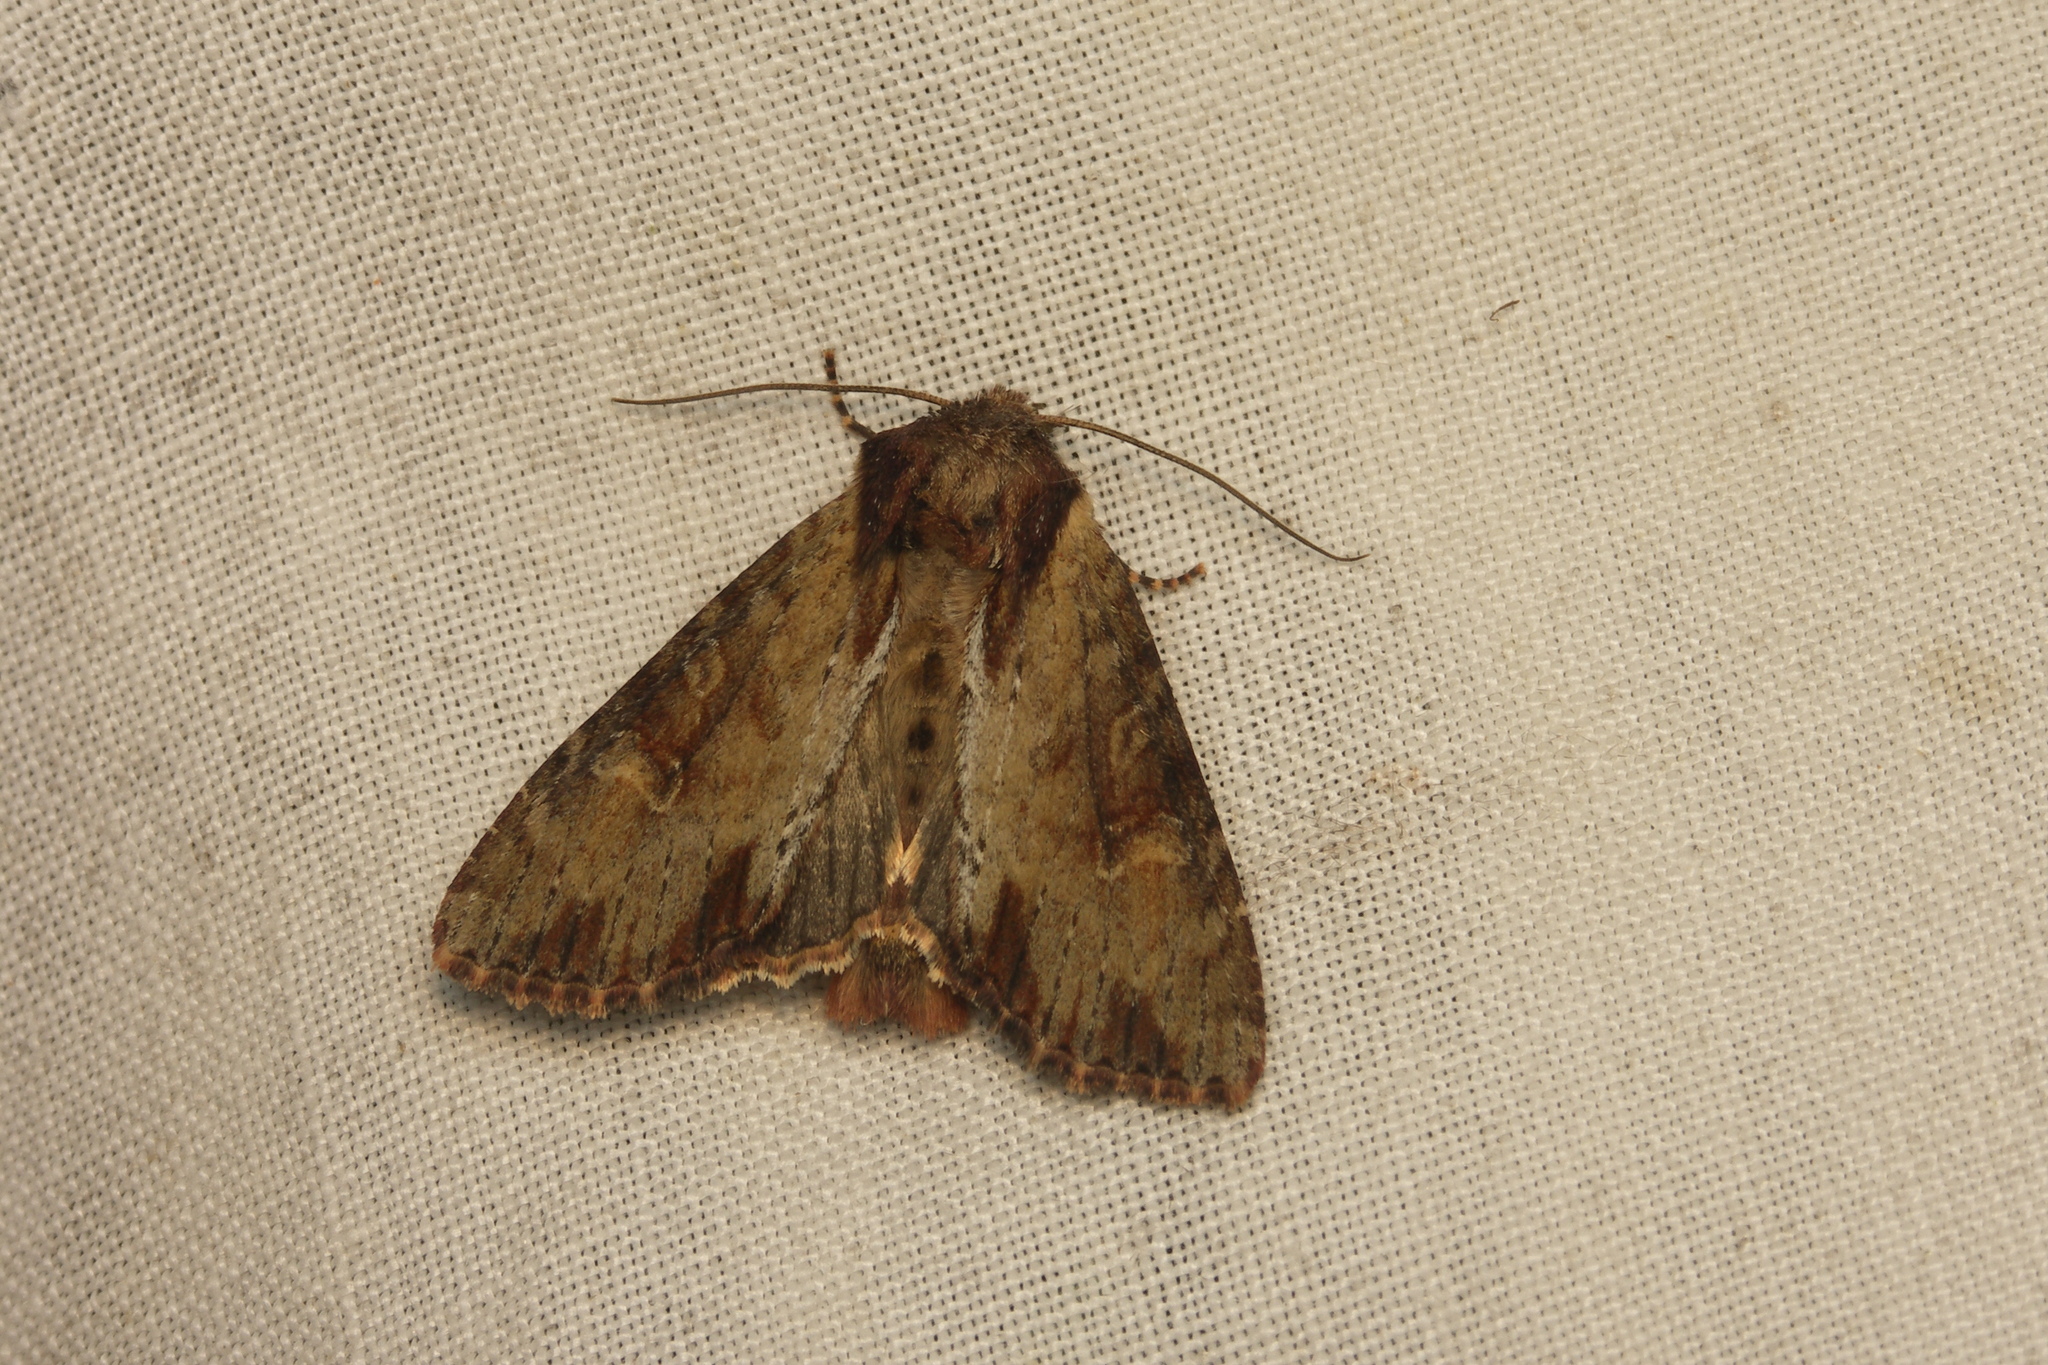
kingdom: Animalia
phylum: Arthropoda
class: Insecta
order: Lepidoptera
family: Noctuidae
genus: Apamea
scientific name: Apamea crenata
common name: Clouded-bordered brindle
